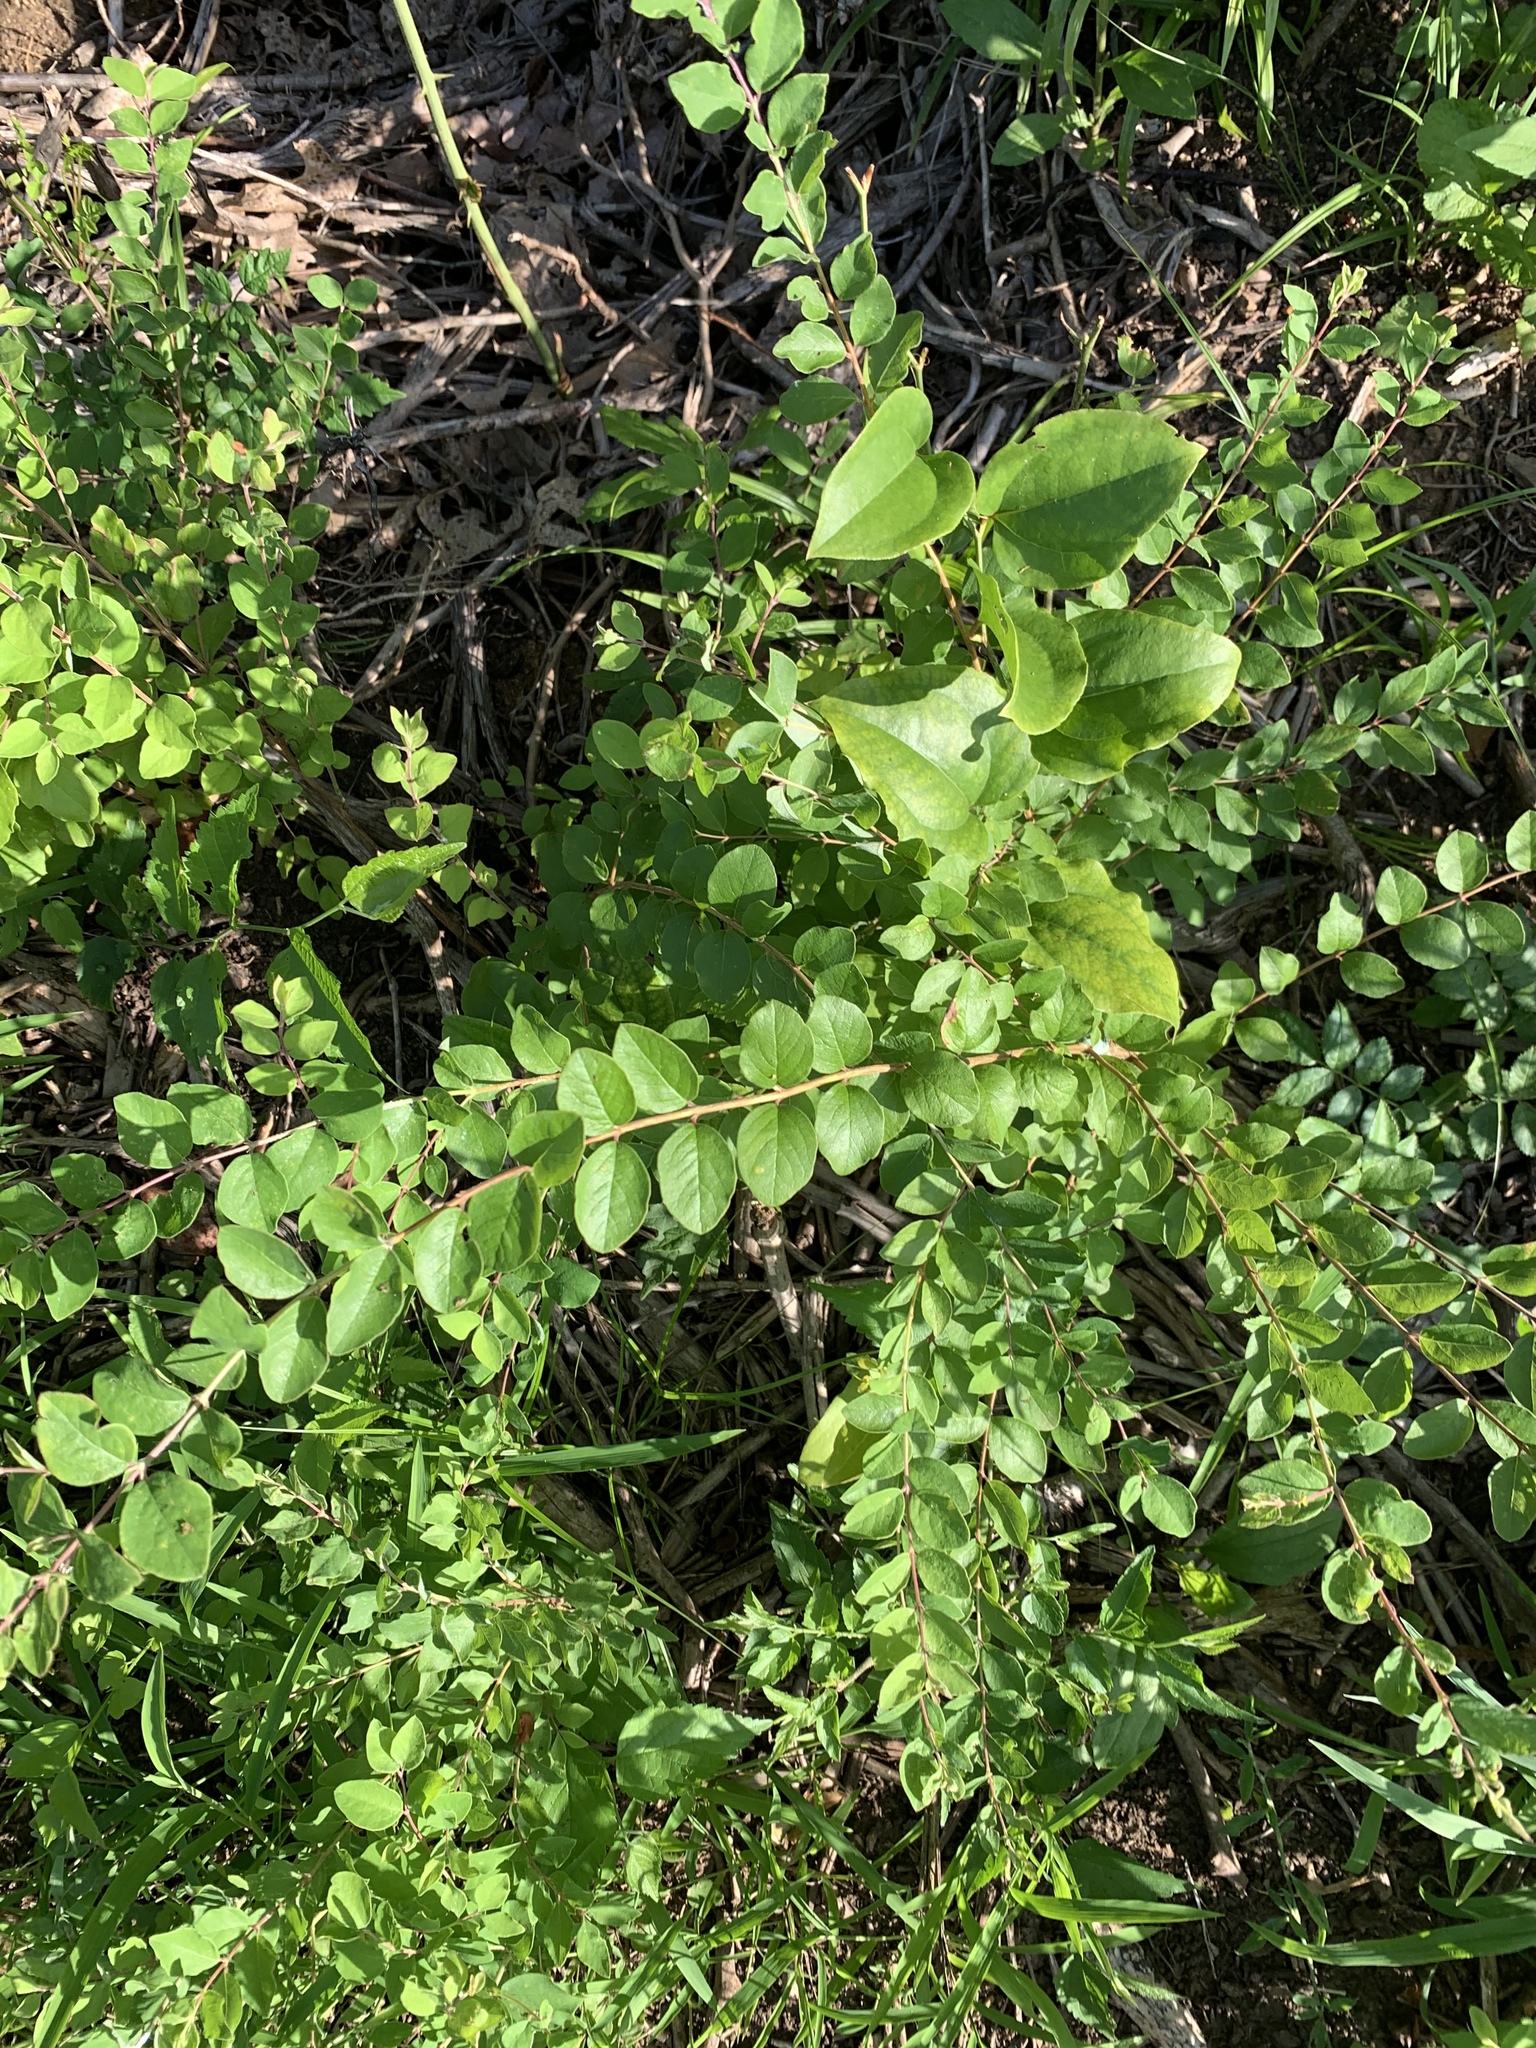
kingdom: Plantae
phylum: Tracheophyta
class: Magnoliopsida
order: Dipsacales
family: Caprifoliaceae
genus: Symphoricarpos
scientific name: Symphoricarpos orbiculatus
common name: Coralberry
